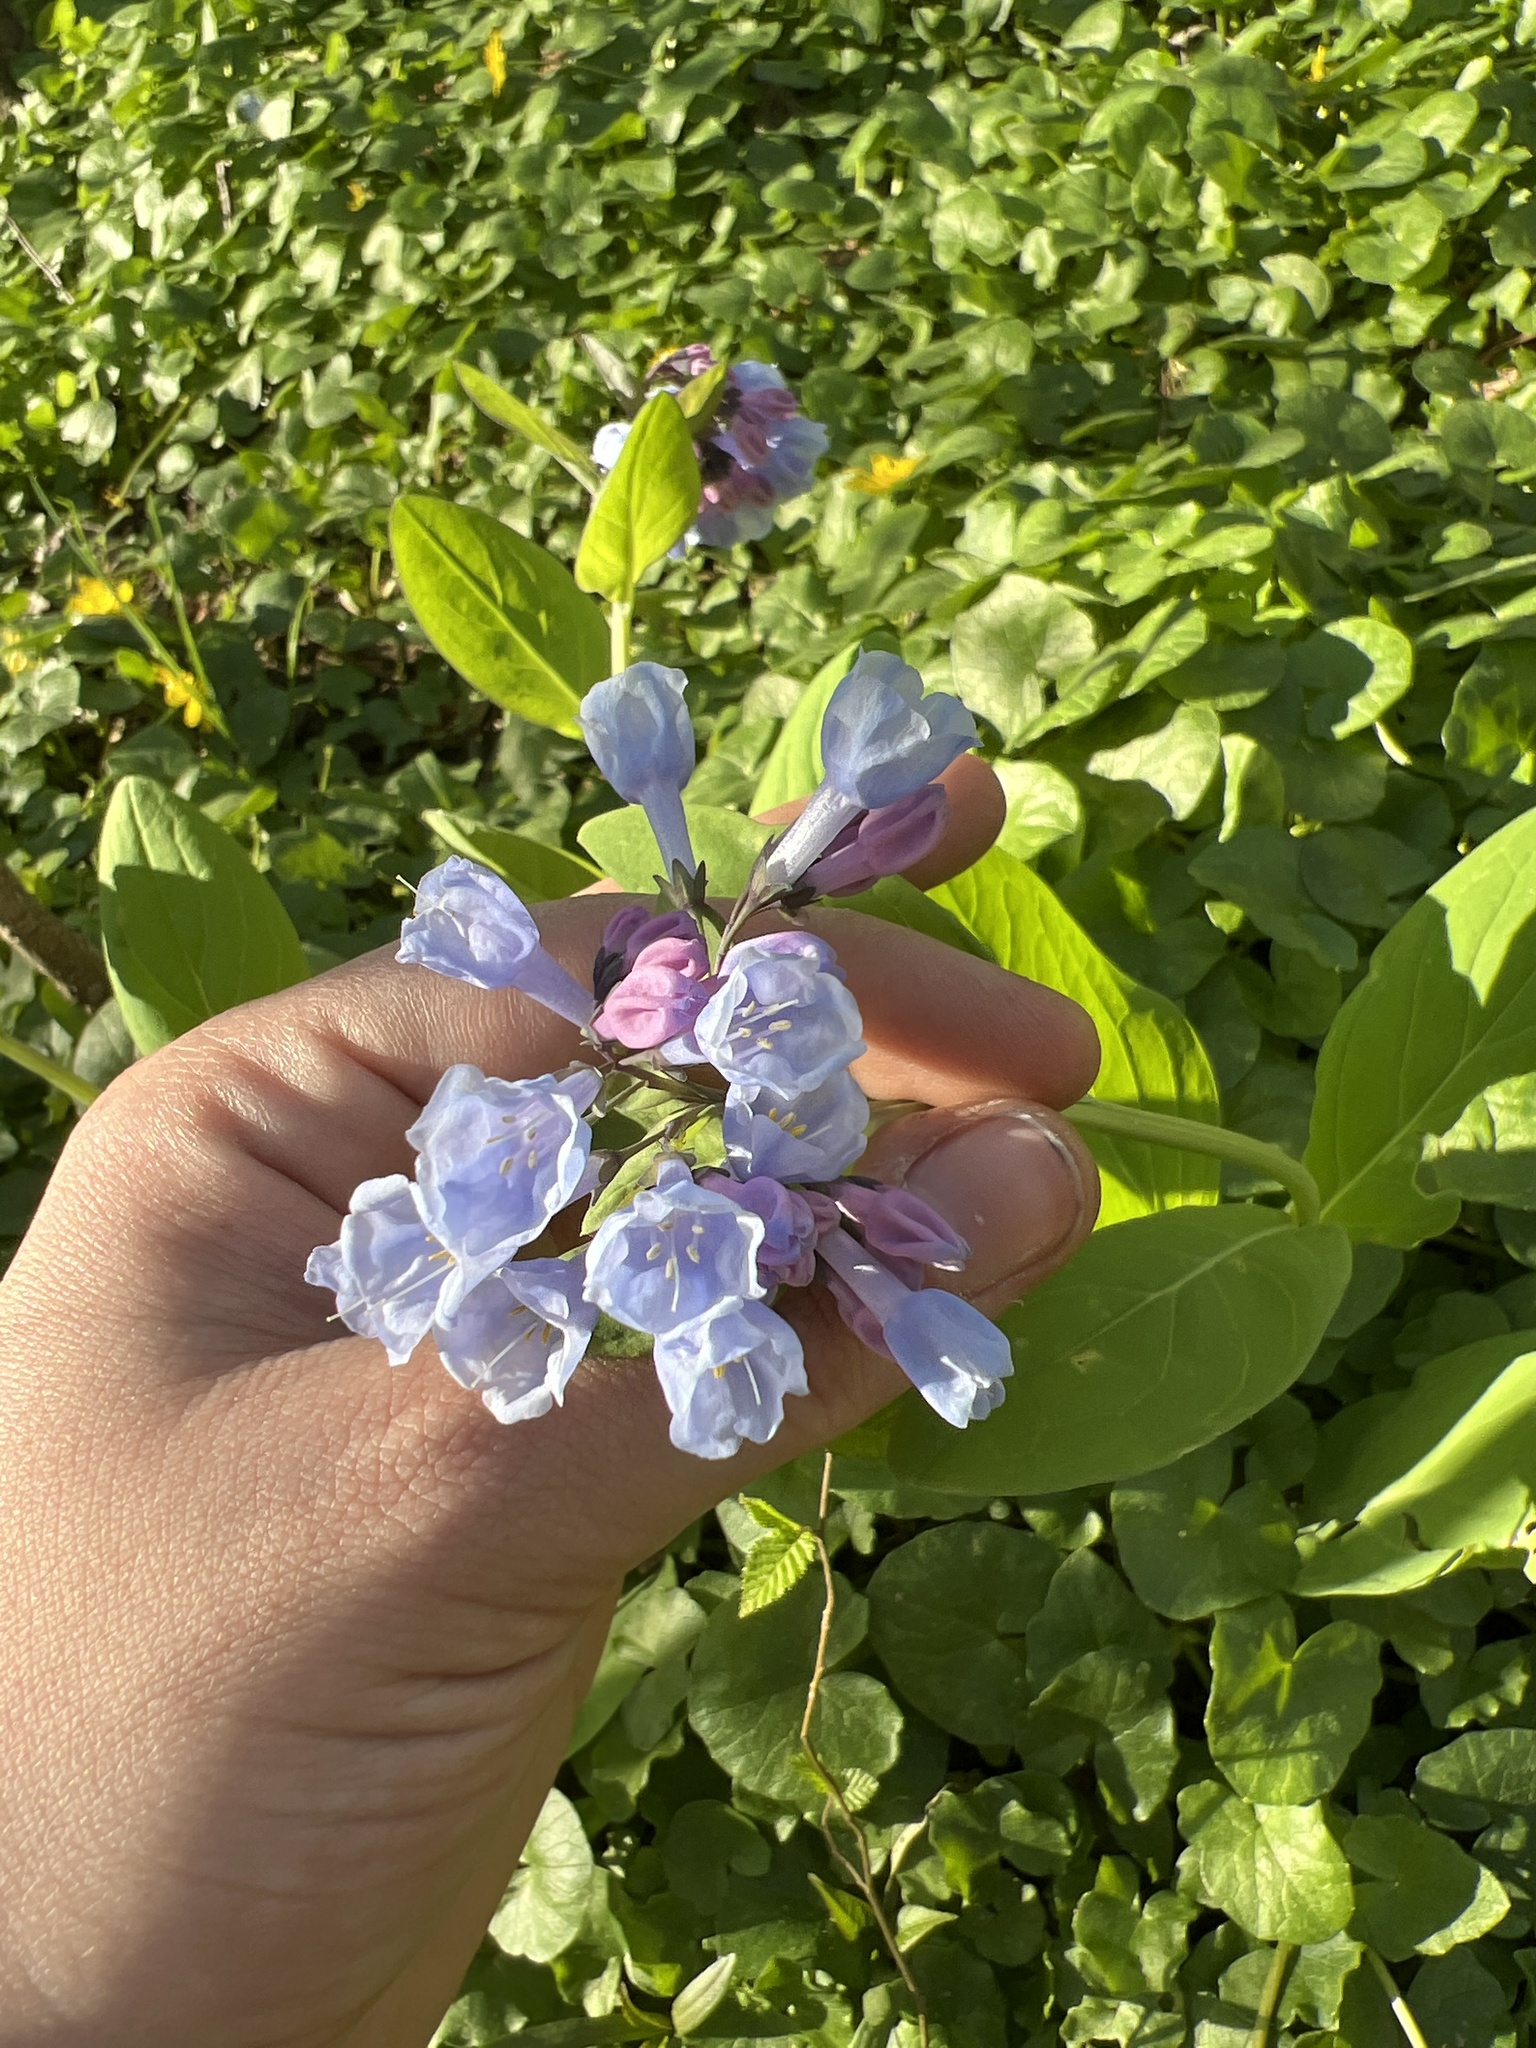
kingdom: Plantae
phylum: Tracheophyta
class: Magnoliopsida
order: Boraginales
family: Boraginaceae
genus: Mertensia
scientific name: Mertensia virginica
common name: Virginia bluebells
